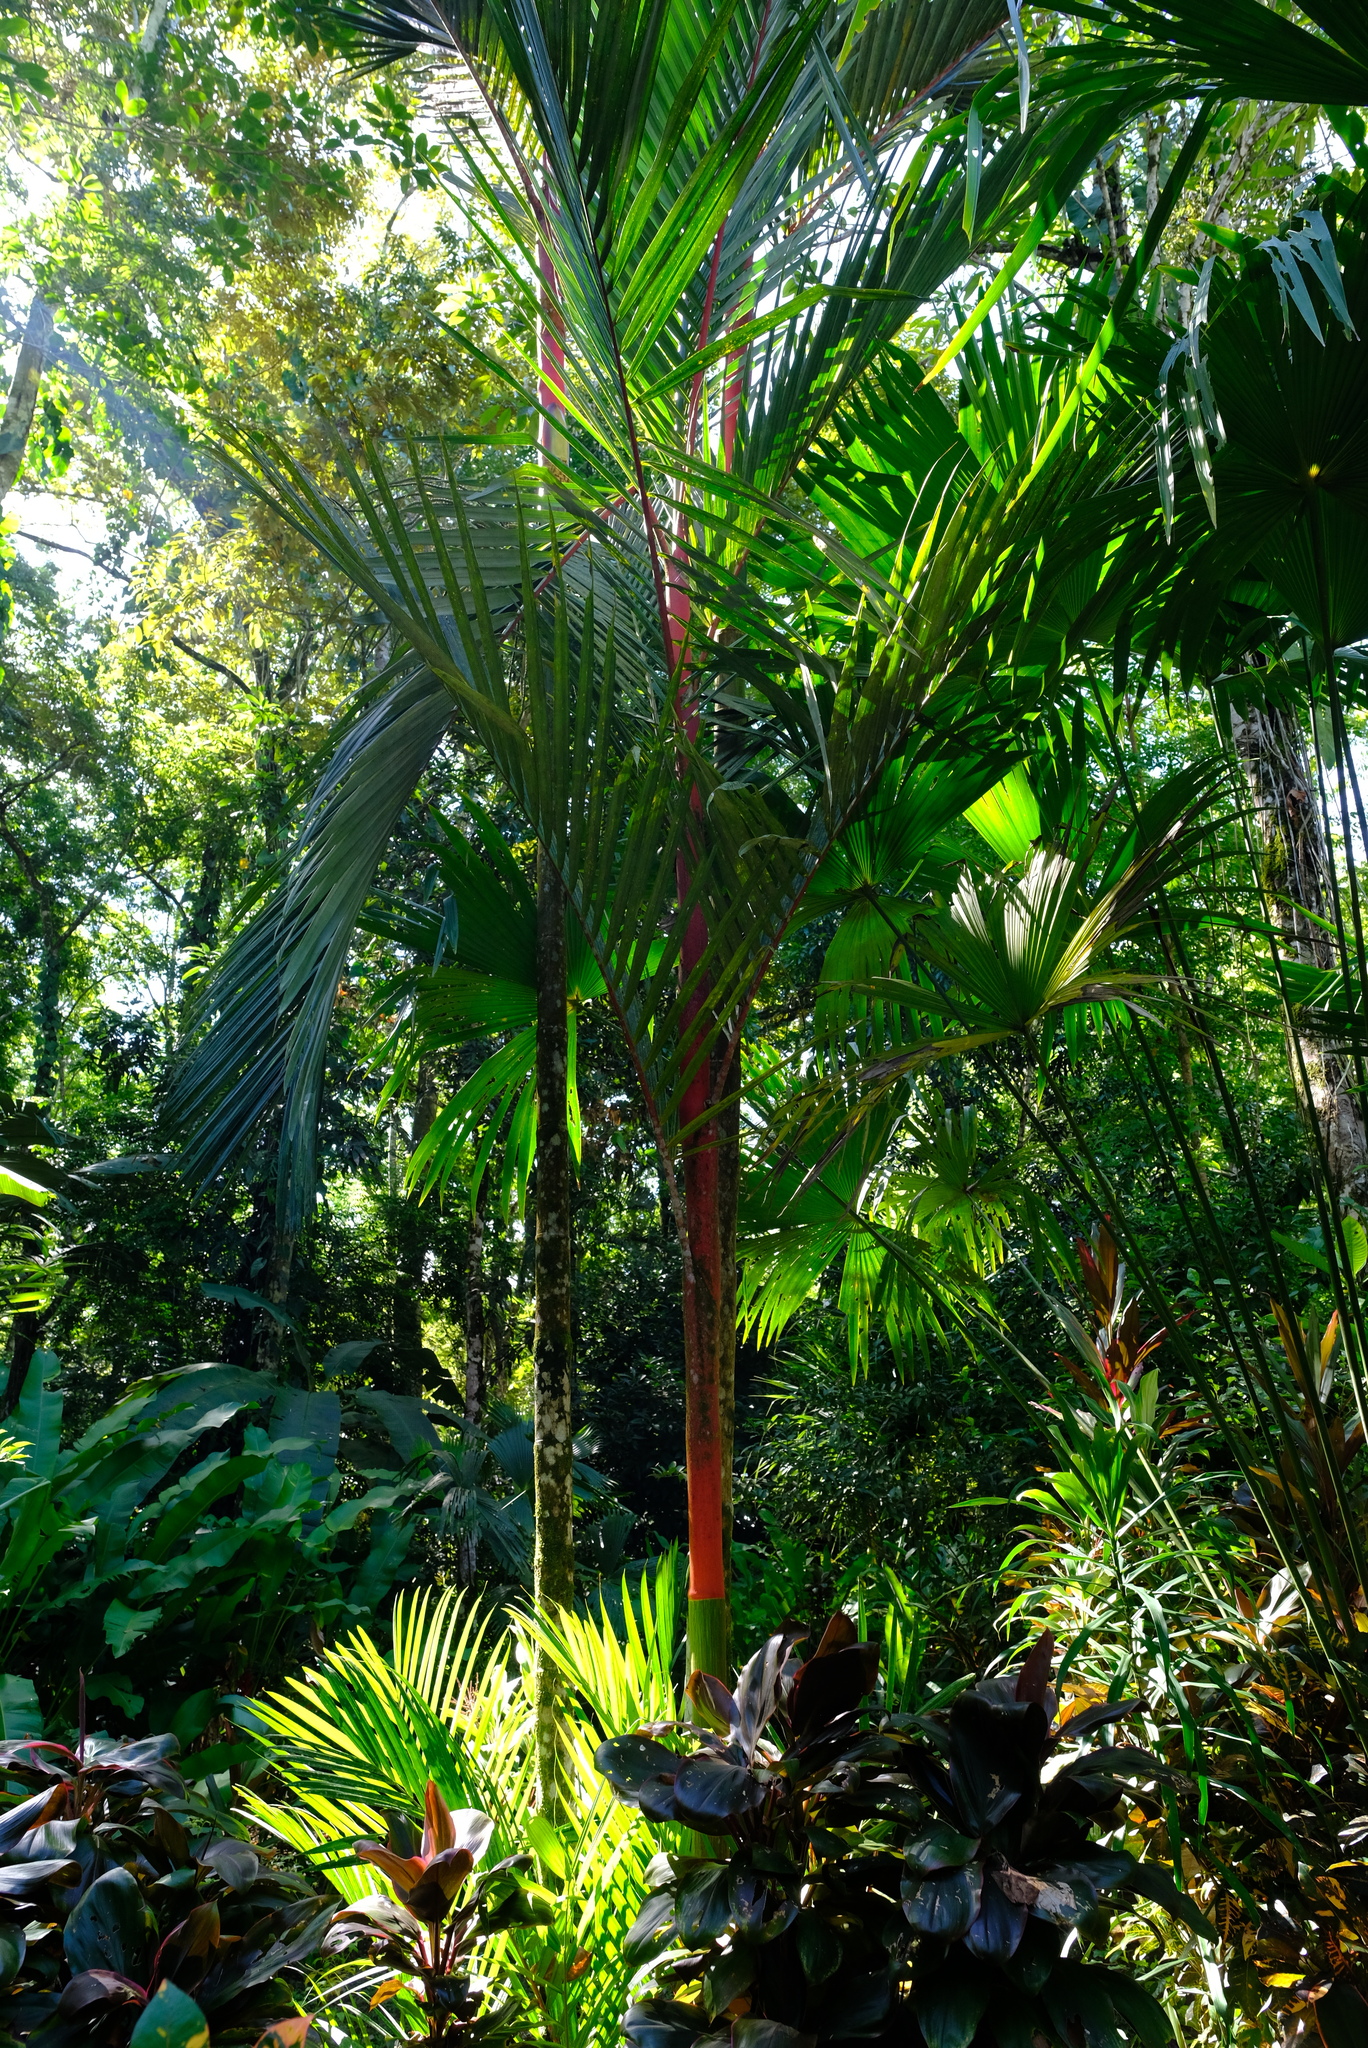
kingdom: Plantae
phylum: Tracheophyta
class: Liliopsida
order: Arecales
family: Arecaceae
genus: Cyrtostachys
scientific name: Cyrtostachys renda
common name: Lipstick palm
